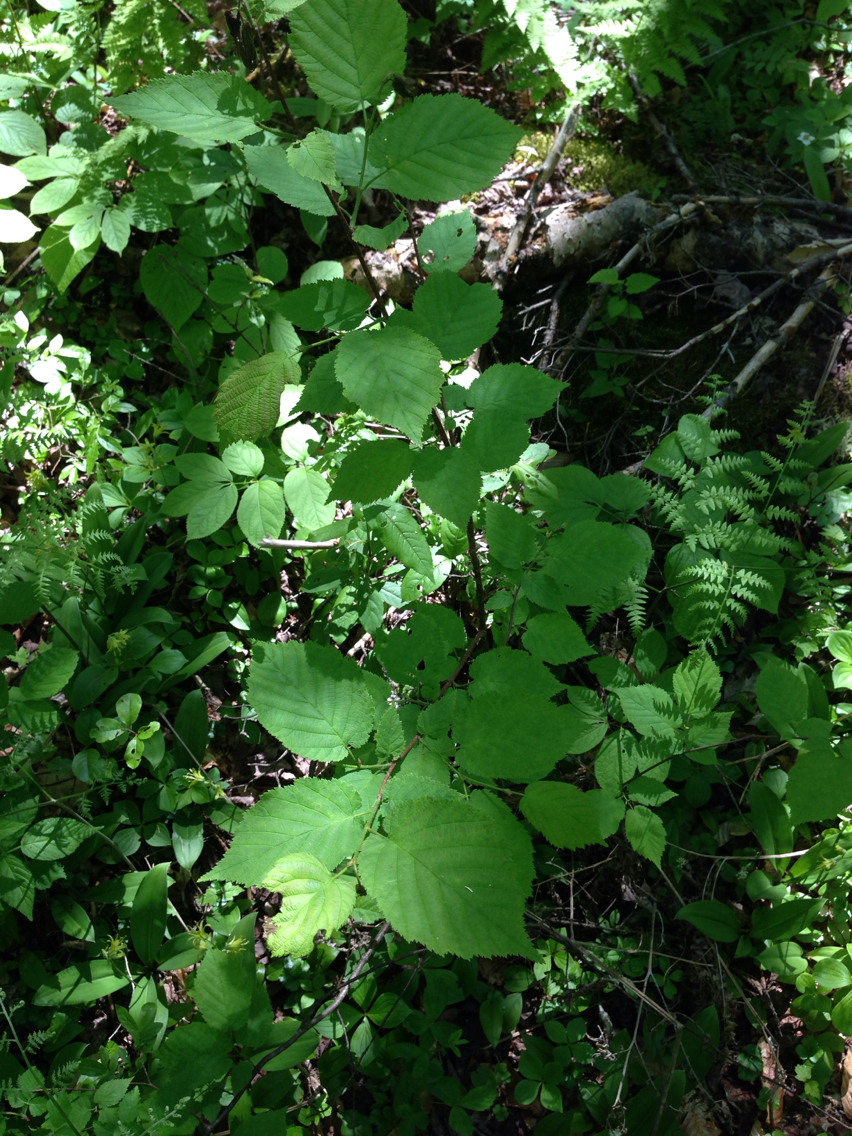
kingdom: Plantae
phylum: Tracheophyta
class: Magnoliopsida
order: Fagales
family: Betulaceae
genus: Corylus
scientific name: Corylus cornuta
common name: Beaked hazel
